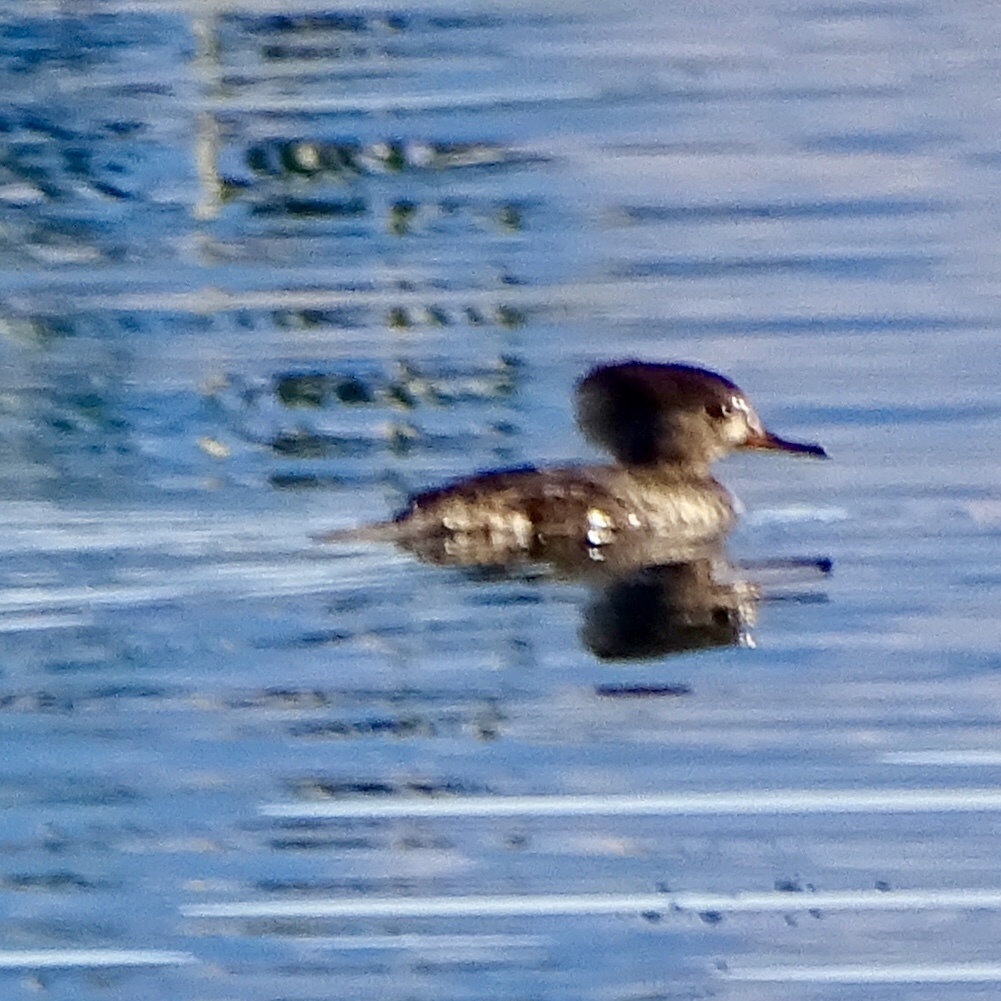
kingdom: Animalia
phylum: Chordata
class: Aves
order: Anseriformes
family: Anatidae
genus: Lophodytes
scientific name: Lophodytes cucullatus
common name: Hooded merganser
